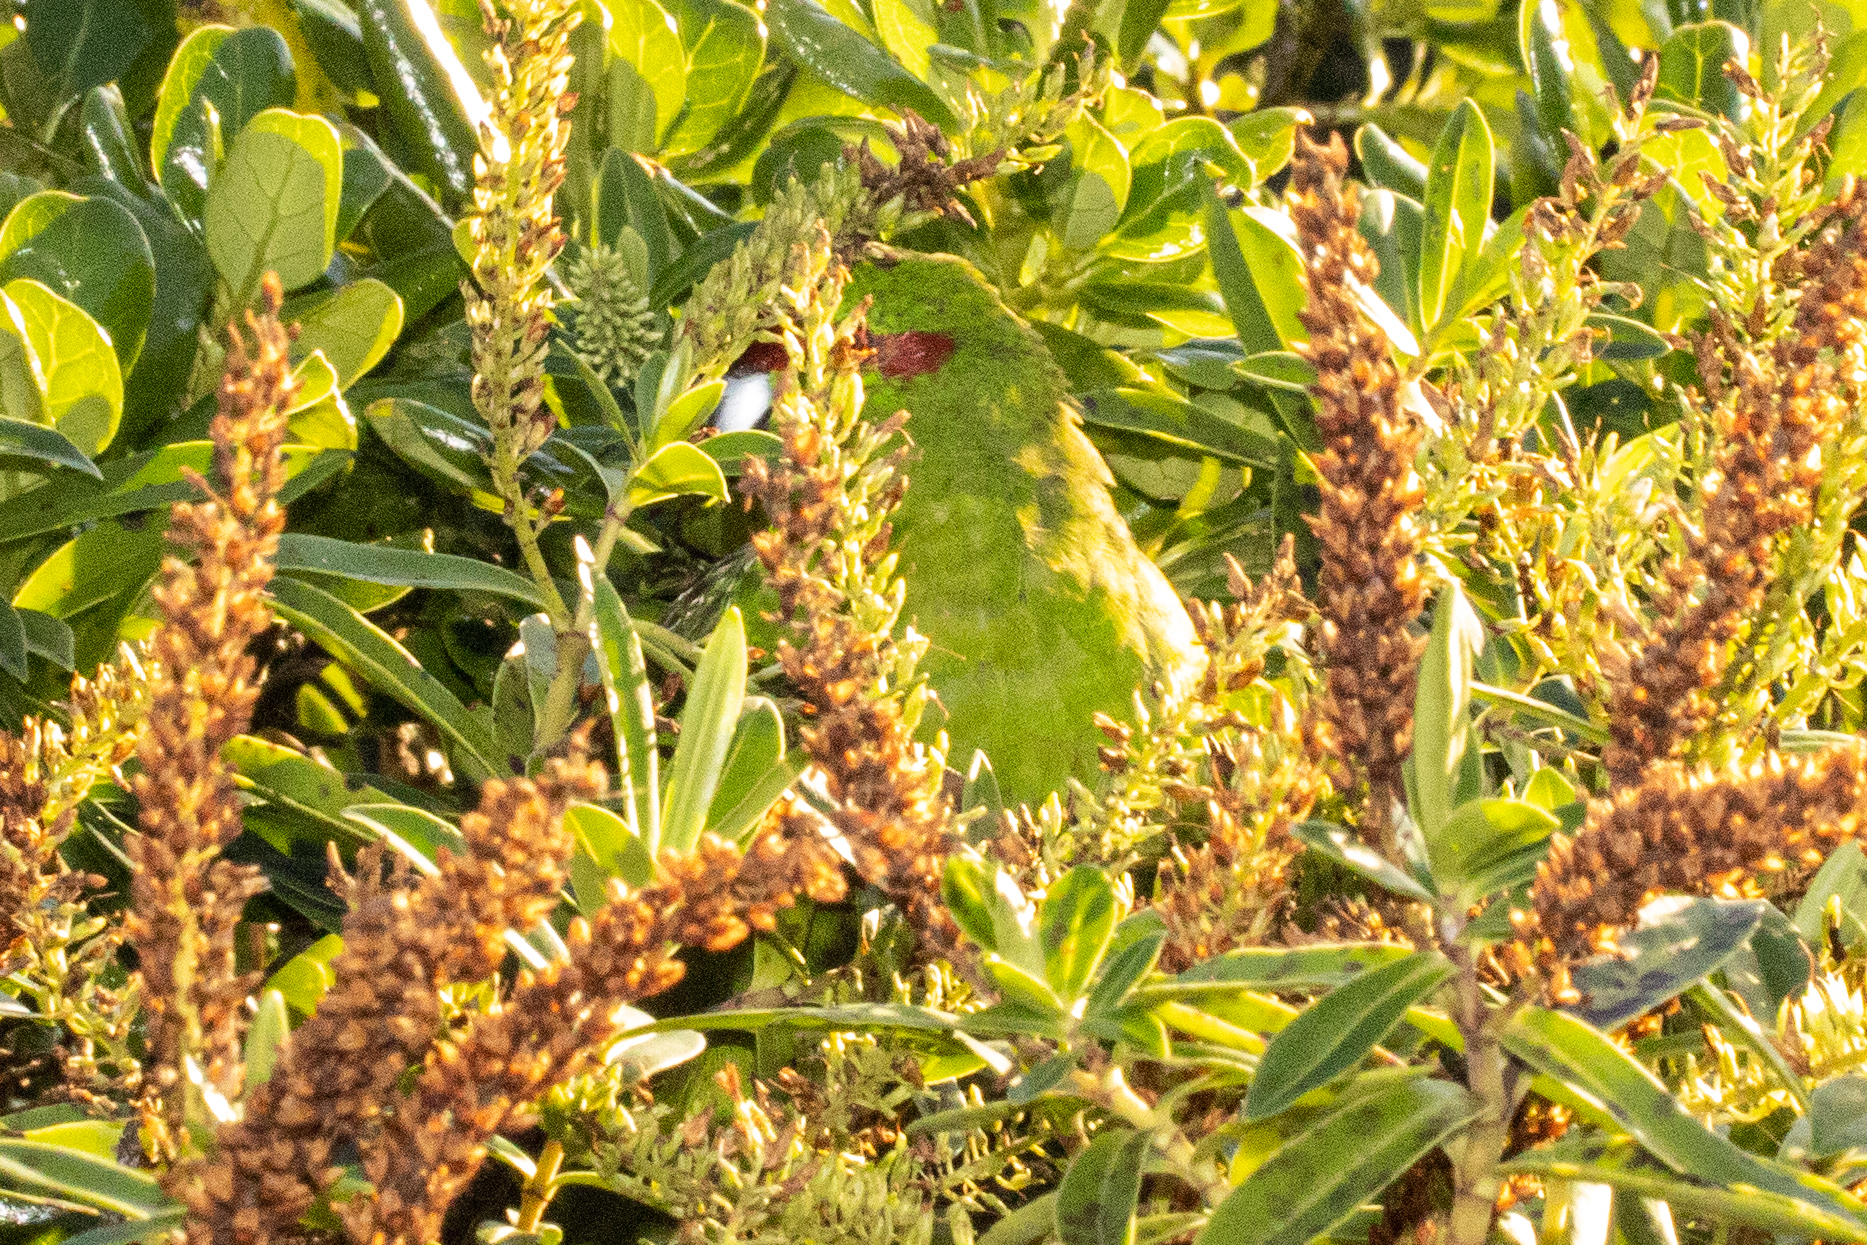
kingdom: Animalia
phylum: Chordata
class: Aves
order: Psittaciformes
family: Psittacidae
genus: Cyanoramphus
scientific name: Cyanoramphus novaezelandiae
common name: Red-fronted parakeet
